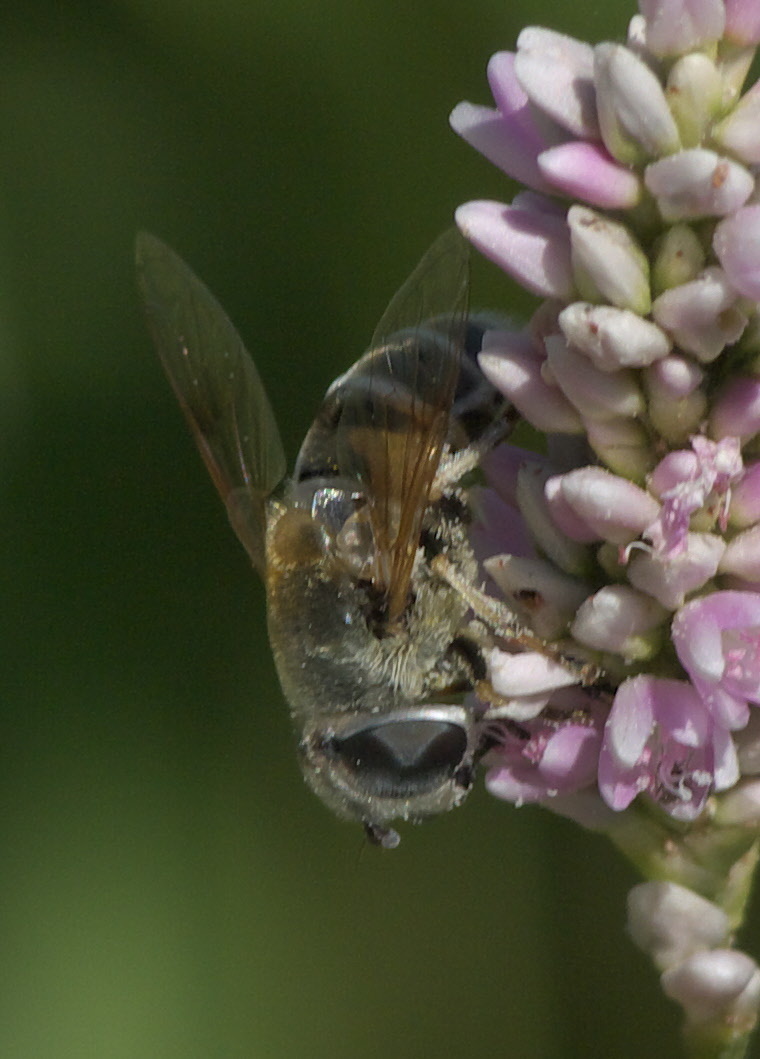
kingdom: Animalia
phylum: Arthropoda
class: Insecta
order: Diptera
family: Syrphidae
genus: Eristalis
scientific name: Eristalis stipator
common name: Yellow-shouldered drone fly
